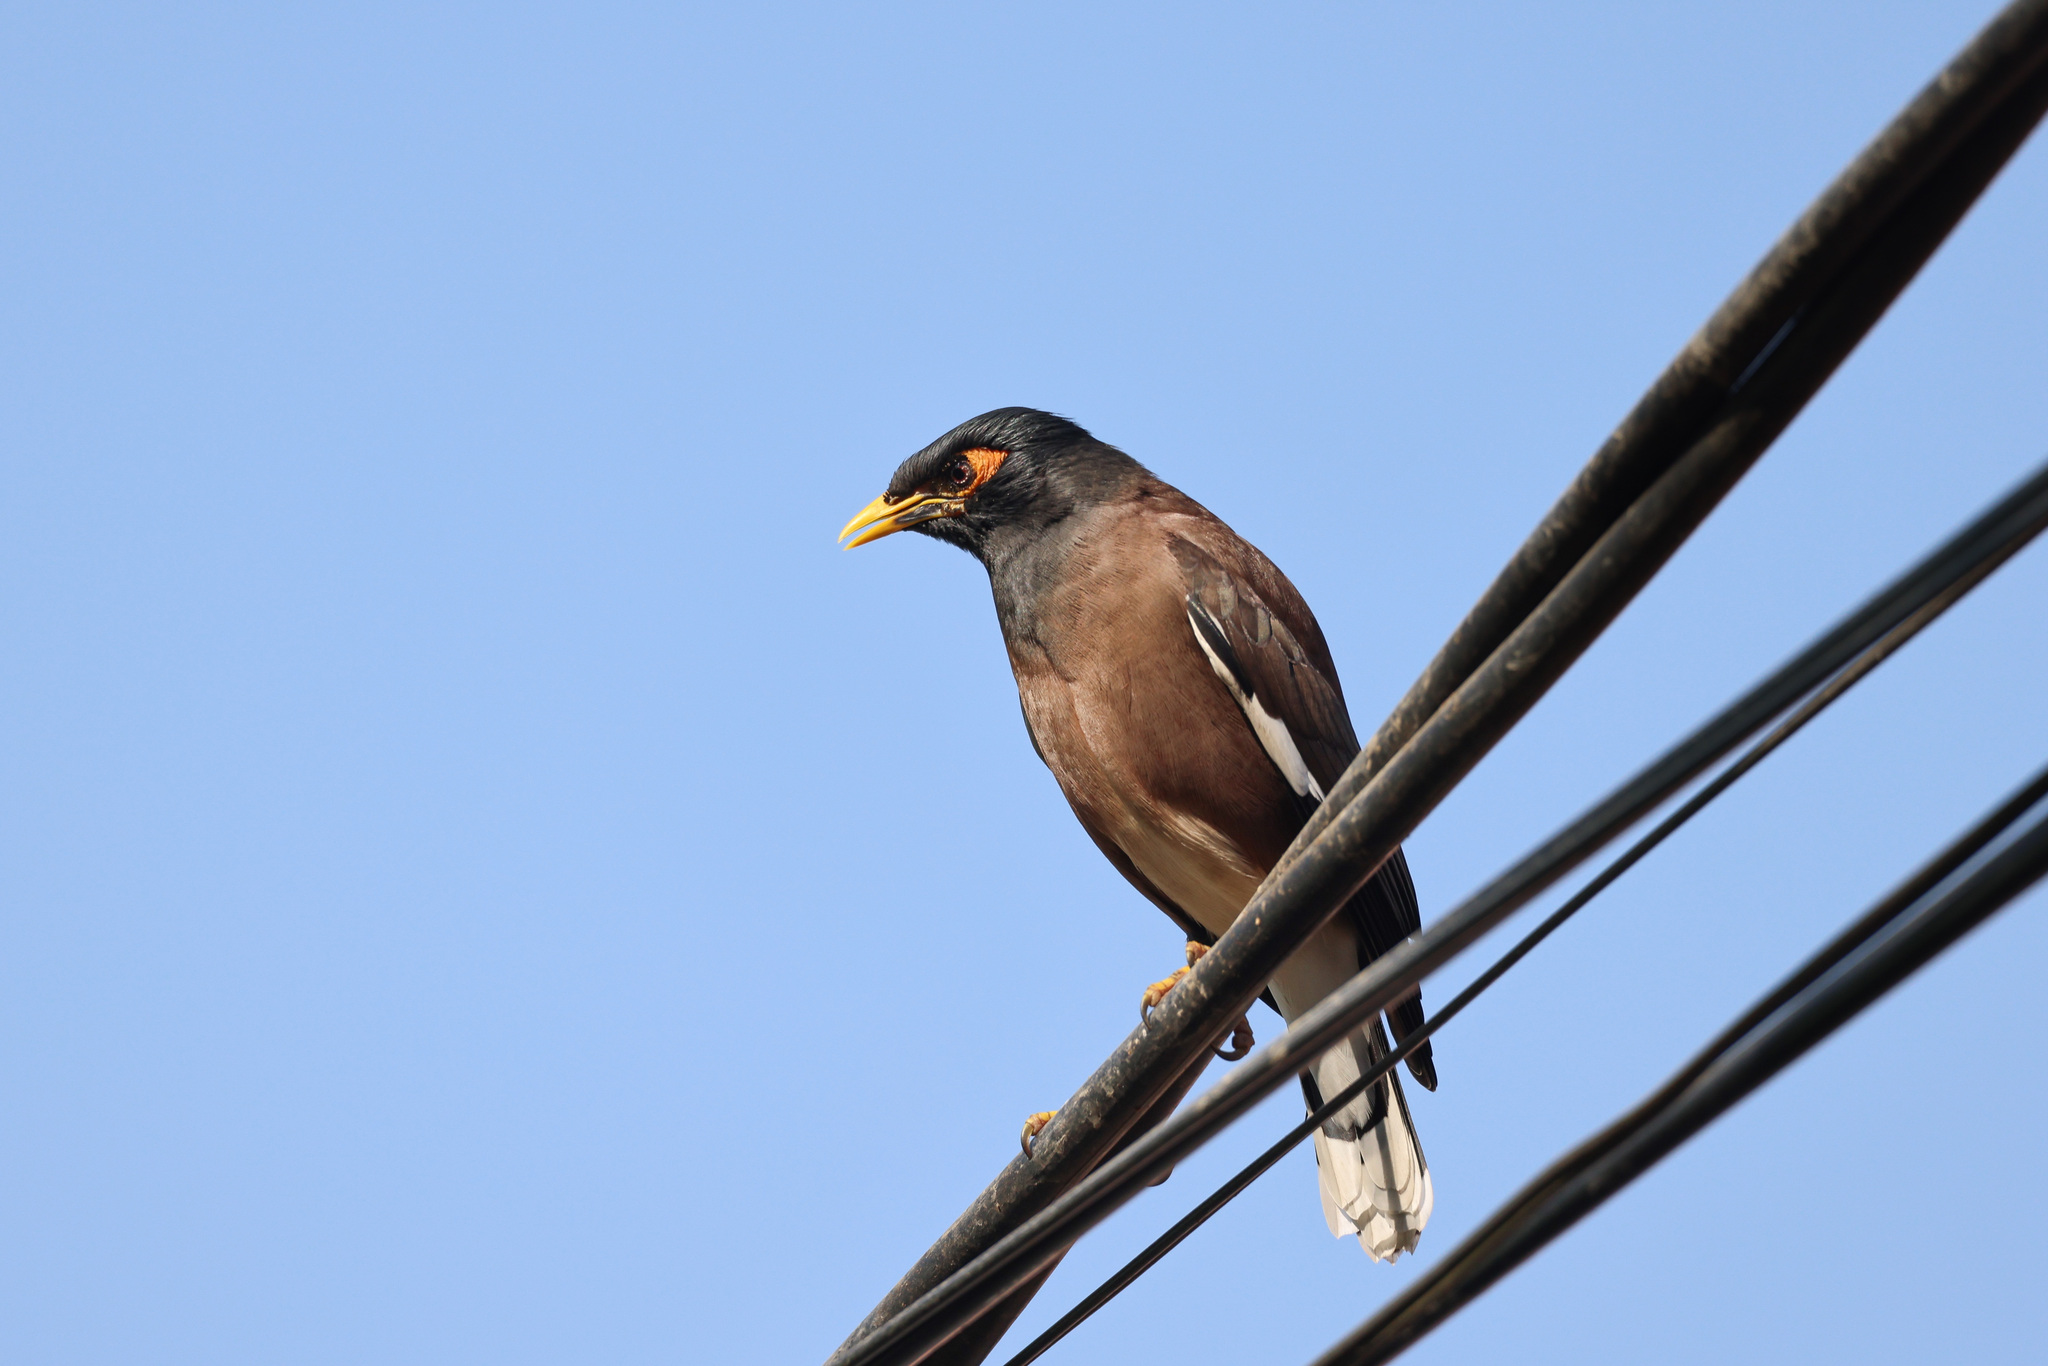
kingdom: Animalia
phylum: Chordata
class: Aves
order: Passeriformes
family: Sturnidae
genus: Acridotheres
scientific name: Acridotheres tristis
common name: Common myna
